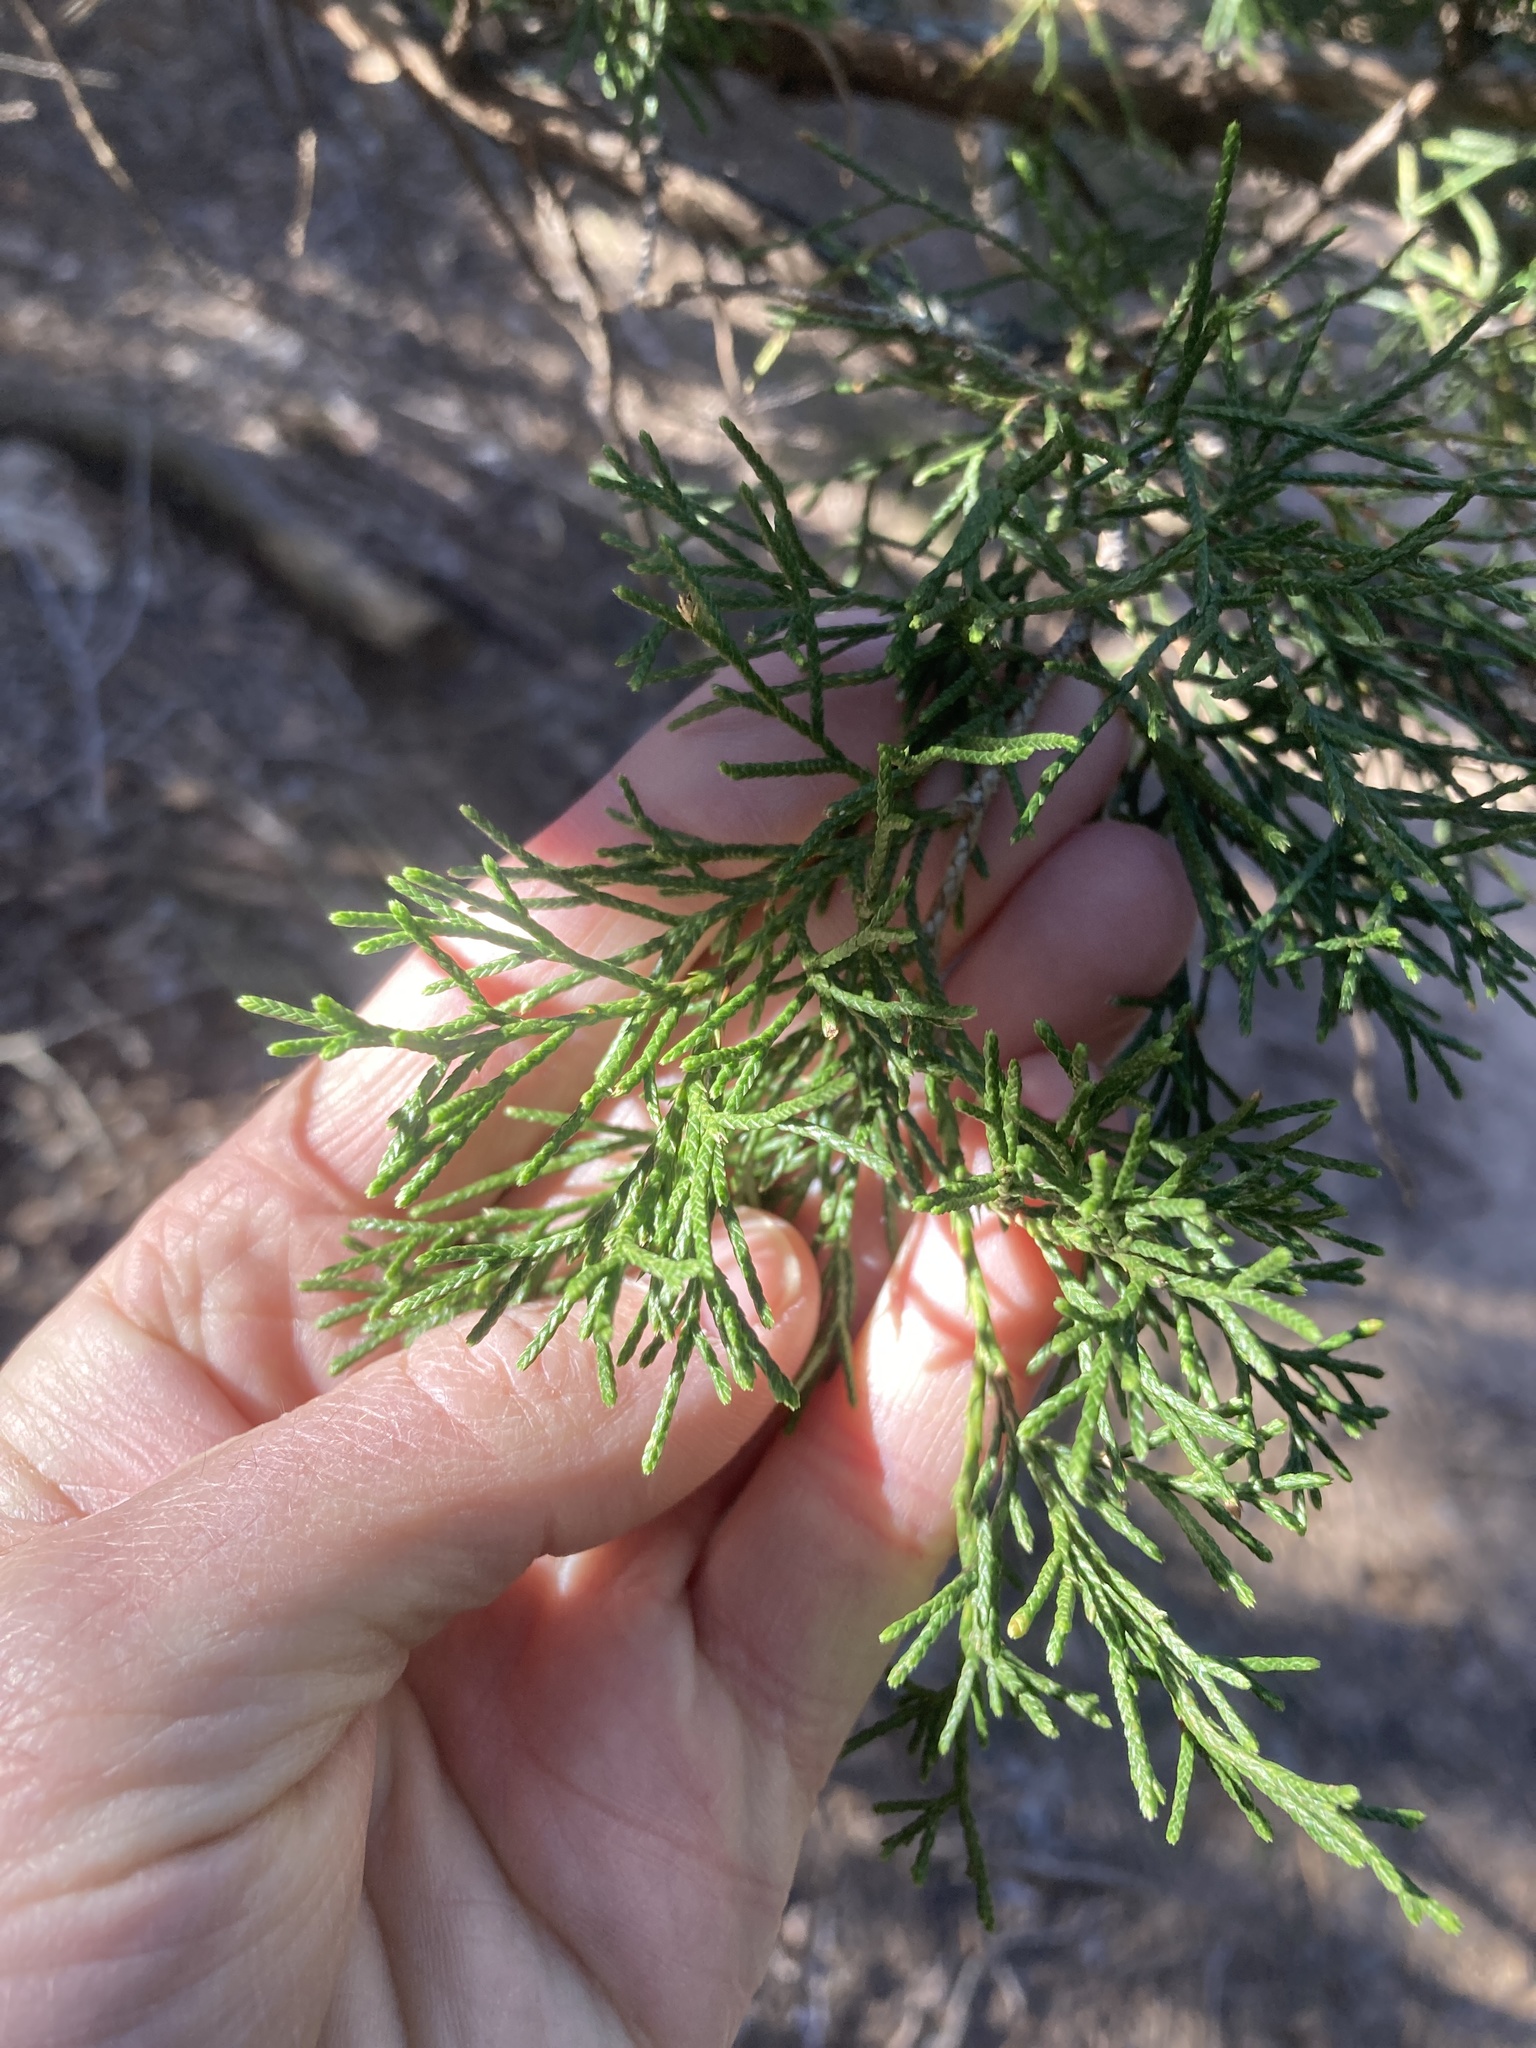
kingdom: Plantae
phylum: Tracheophyta
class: Pinopsida
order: Pinales
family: Cupressaceae
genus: Juniperus
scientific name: Juniperus virginiana
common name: Red juniper
